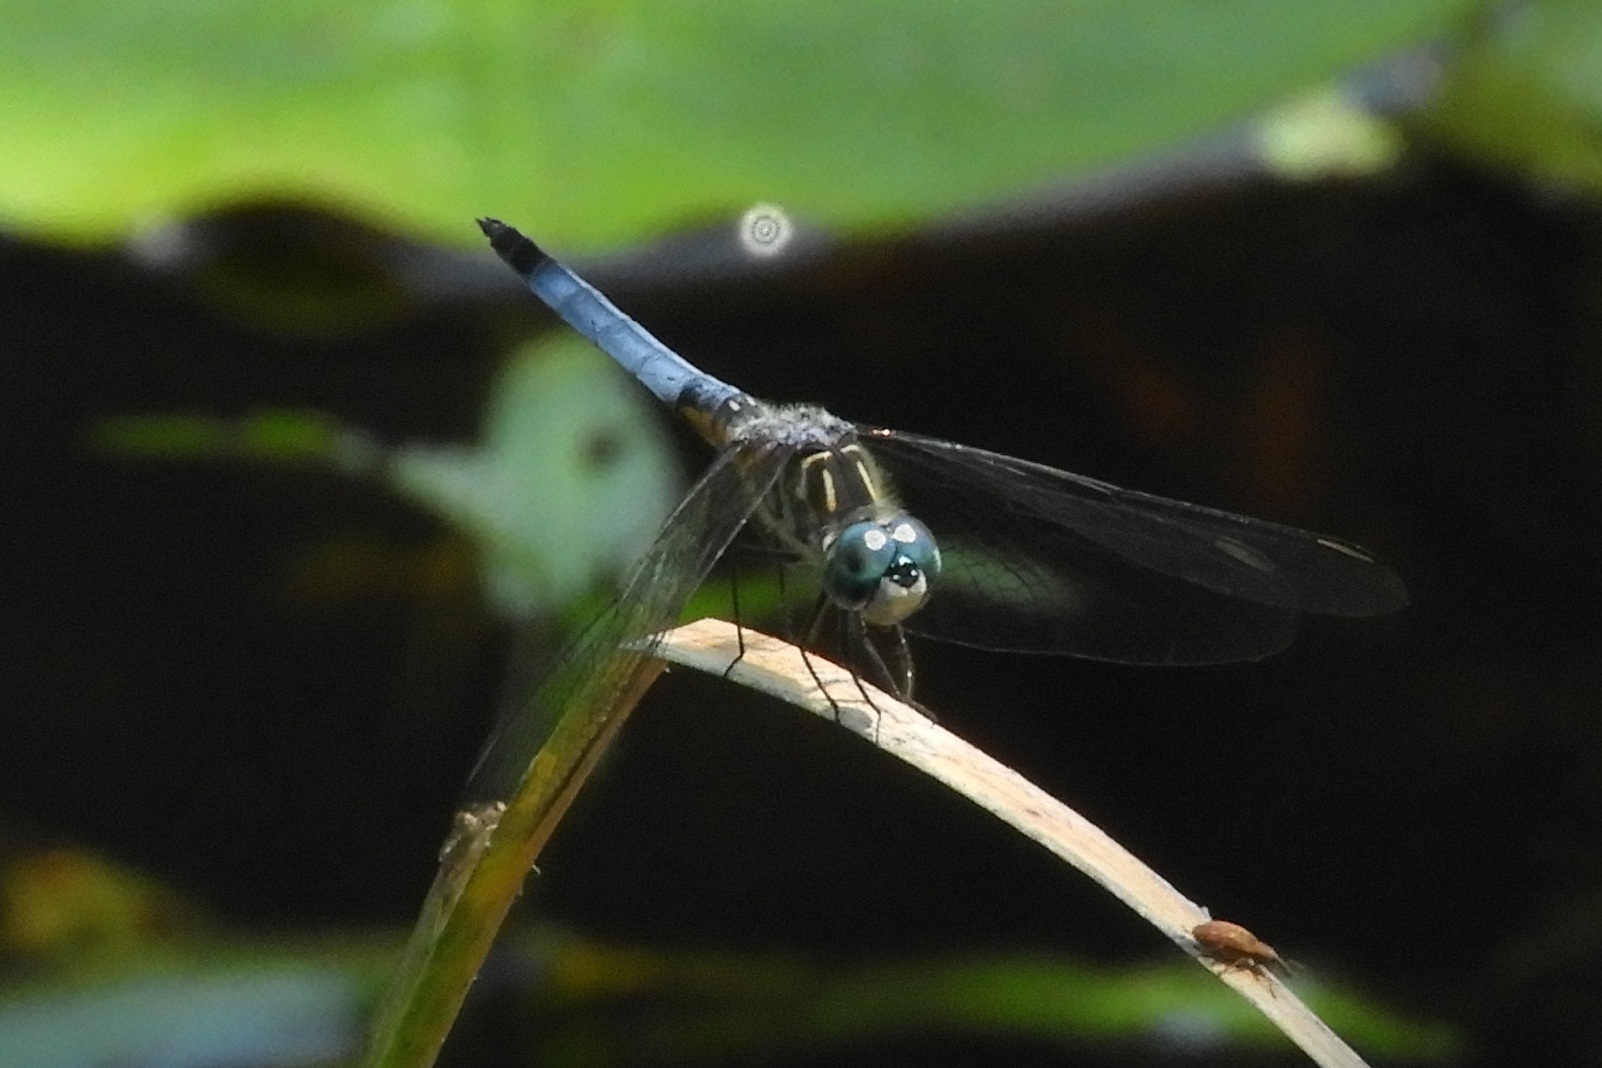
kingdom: Animalia
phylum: Arthropoda
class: Insecta
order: Odonata
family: Libellulidae
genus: Pachydiplax
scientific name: Pachydiplax longipennis
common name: Blue dasher
